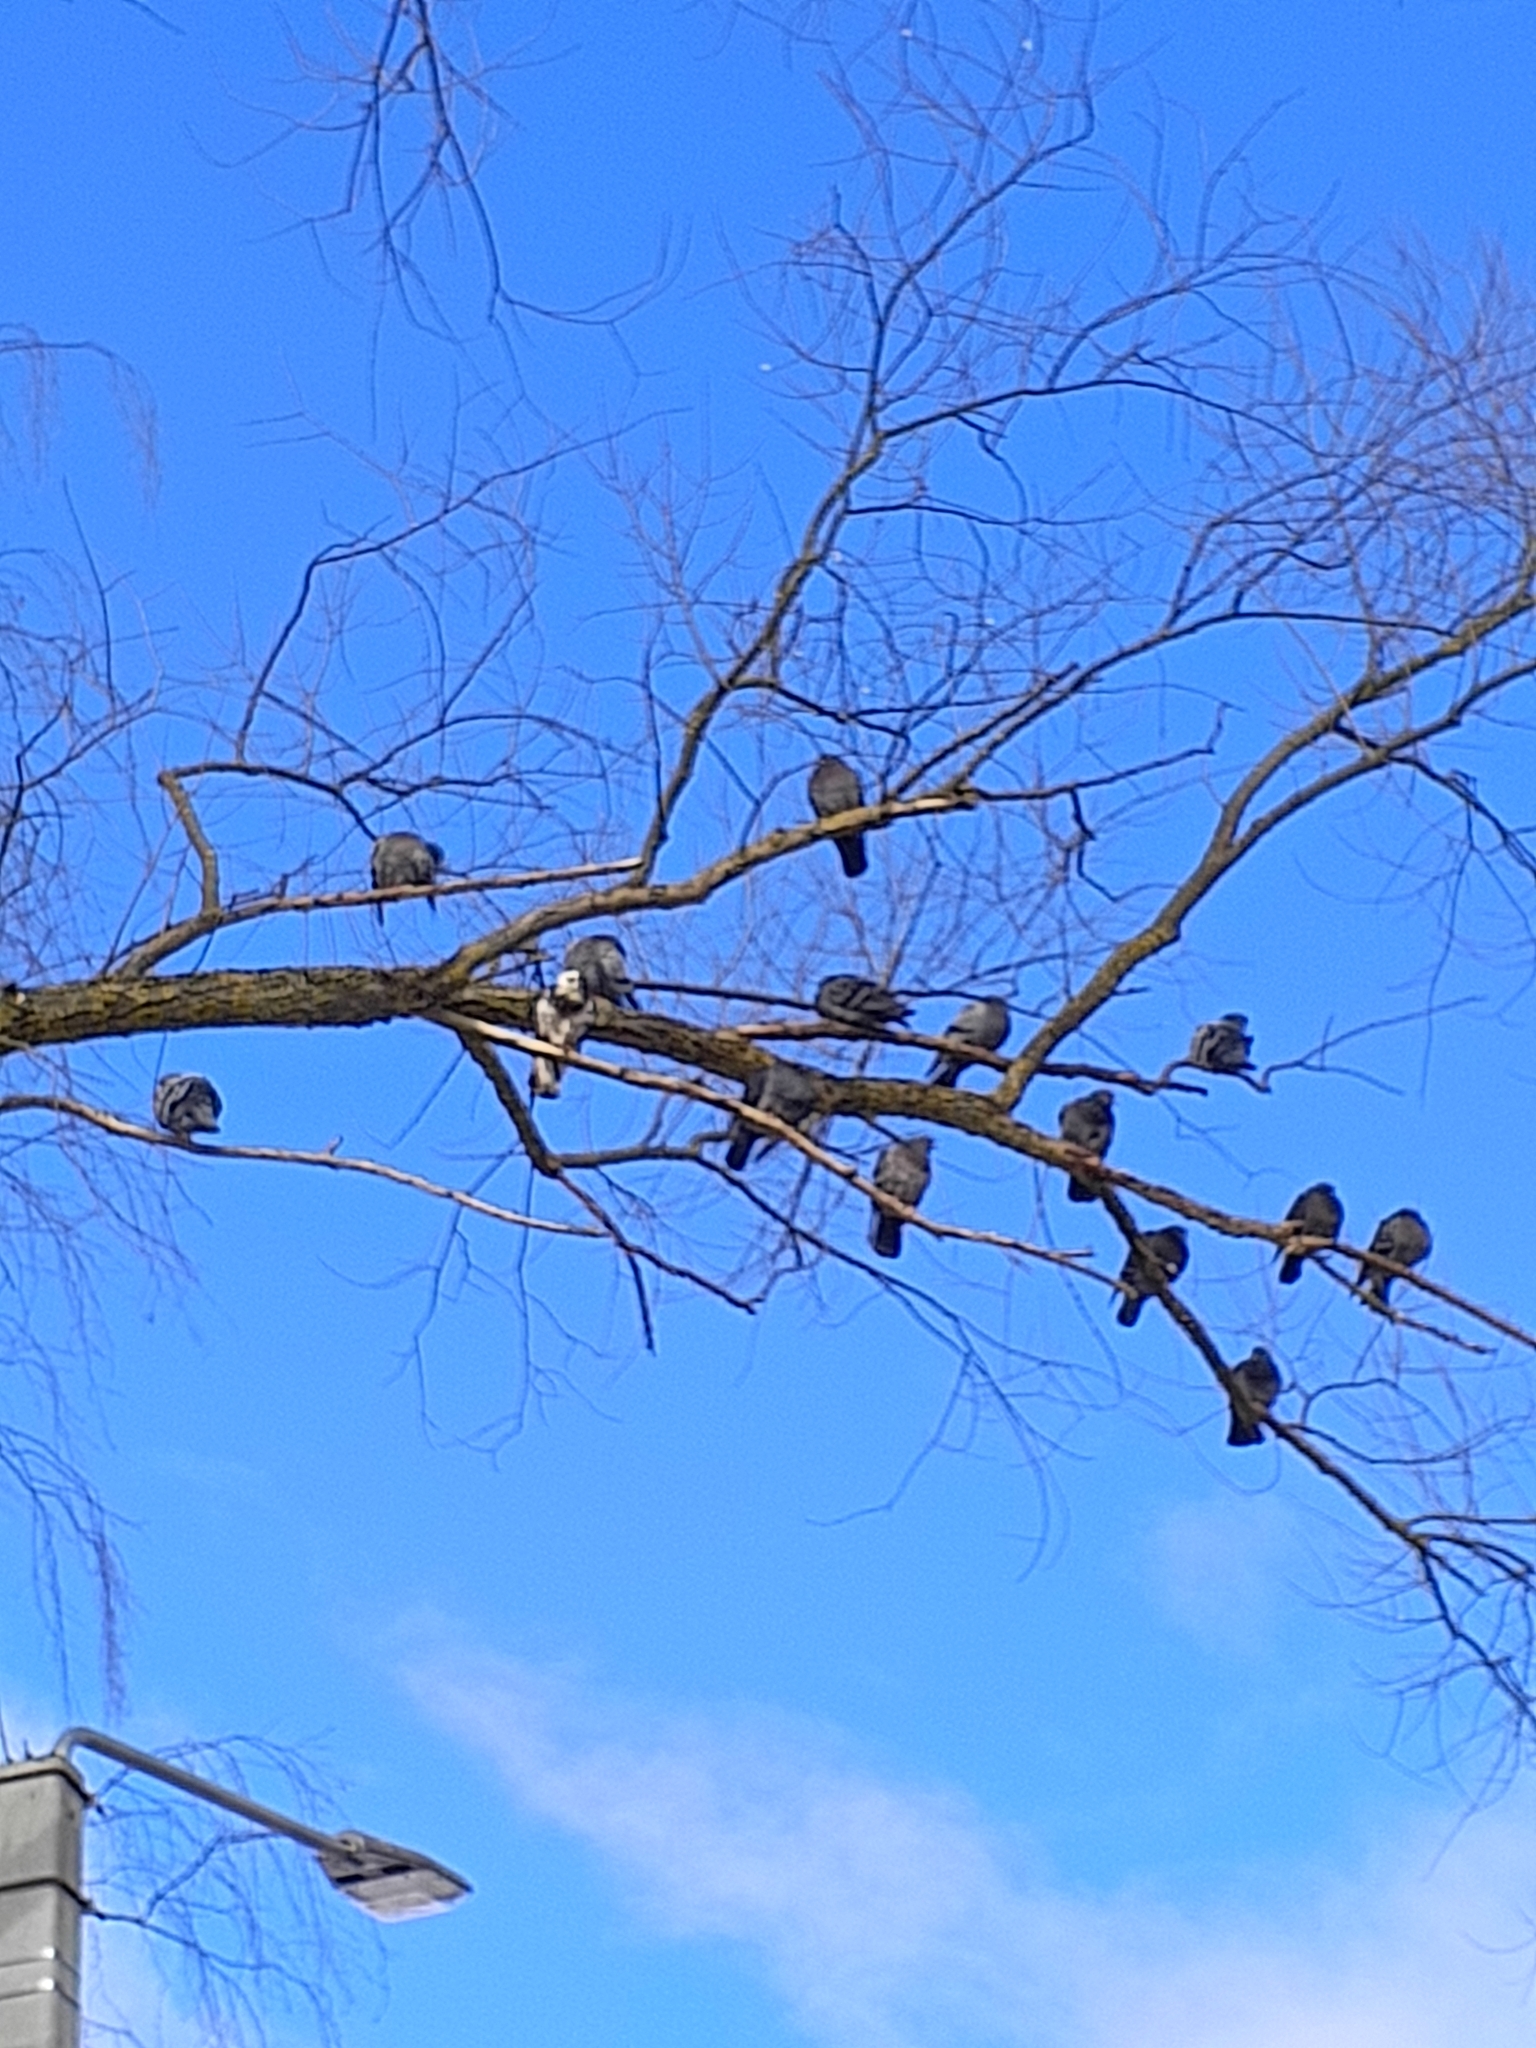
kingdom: Animalia
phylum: Chordata
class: Aves
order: Columbiformes
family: Columbidae
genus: Columba
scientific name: Columba livia
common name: Rock pigeon
